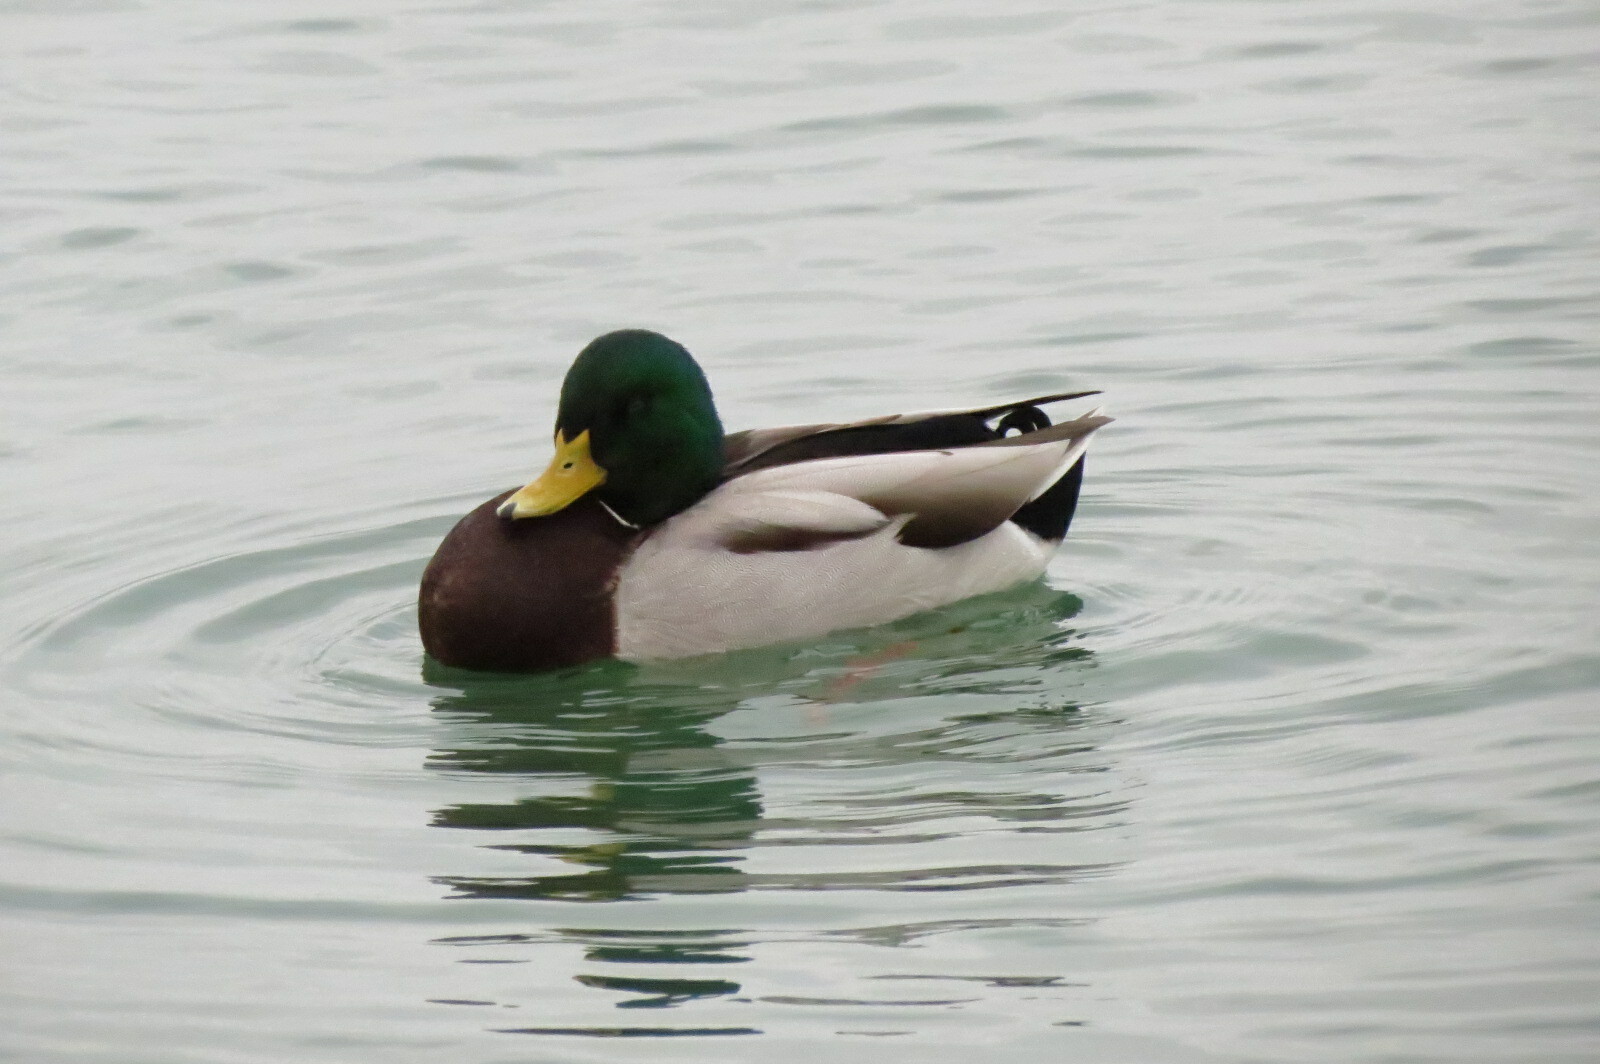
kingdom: Animalia
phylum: Chordata
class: Aves
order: Anseriformes
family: Anatidae
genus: Anas
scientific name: Anas platyrhynchos
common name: Mallard
